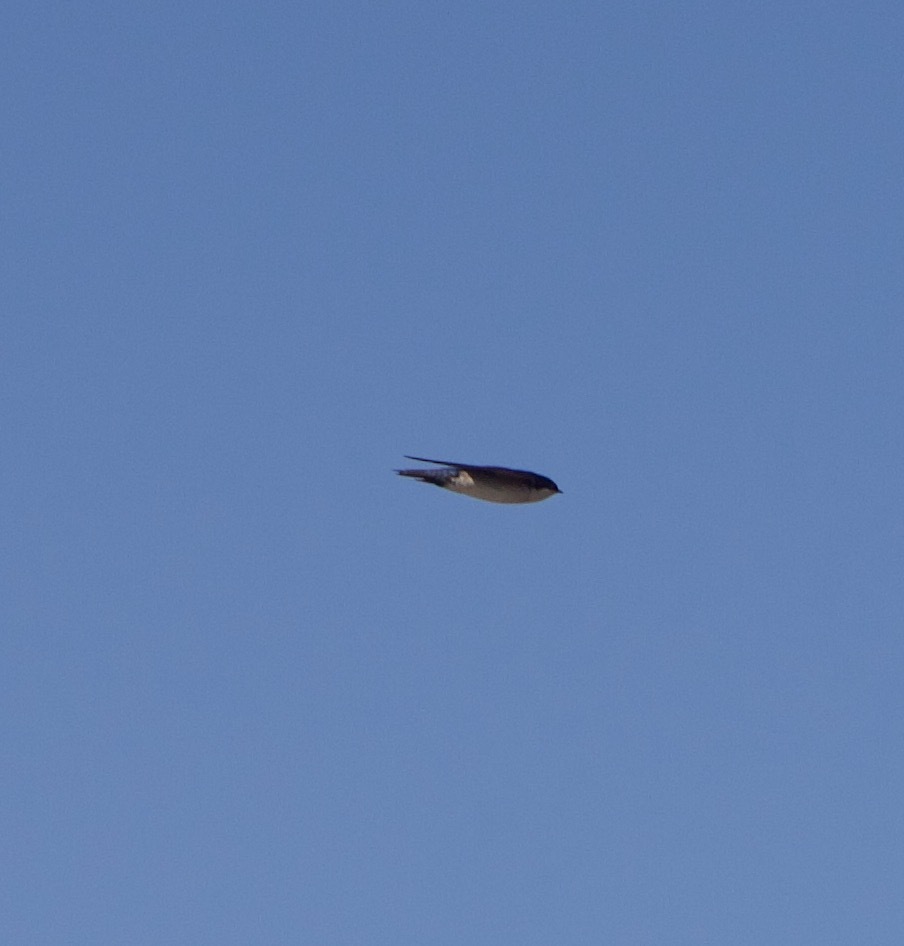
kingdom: Animalia
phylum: Chordata
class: Aves
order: Passeriformes
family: Hirundinidae
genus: Tachycineta
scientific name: Tachycineta leucopyga
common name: Chilean swallow
